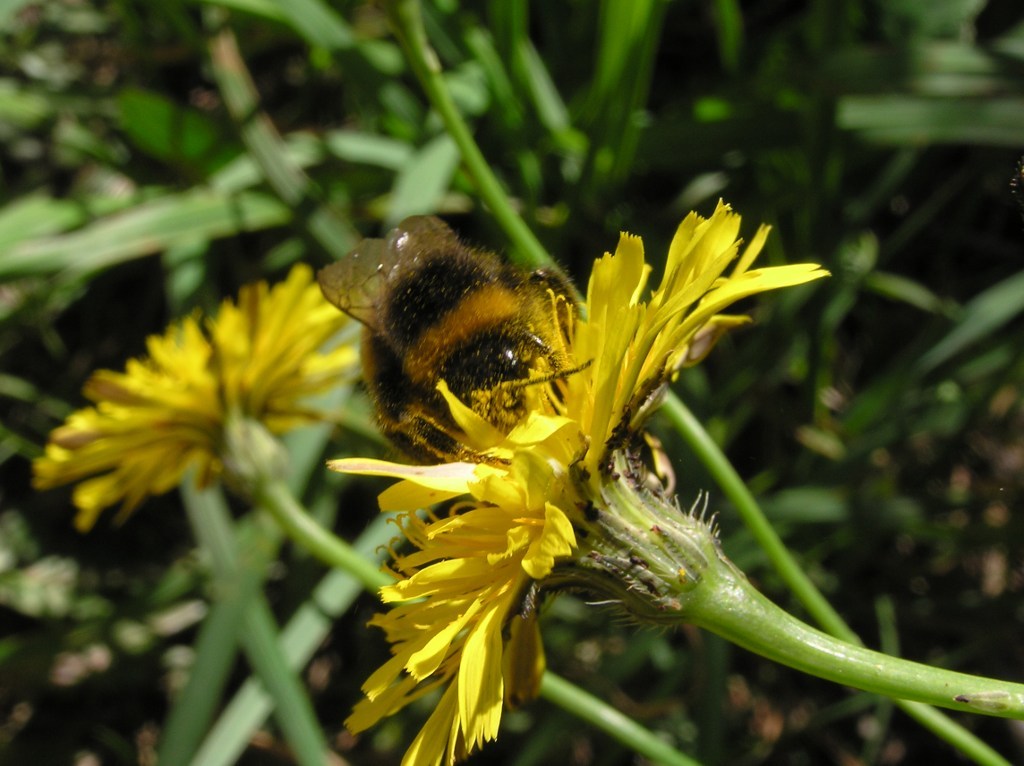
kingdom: Plantae
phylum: Tracheophyta
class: Magnoliopsida
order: Asterales
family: Asteraceae
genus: Hypochaeris
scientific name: Hypochaeris radicata
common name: Flatweed
